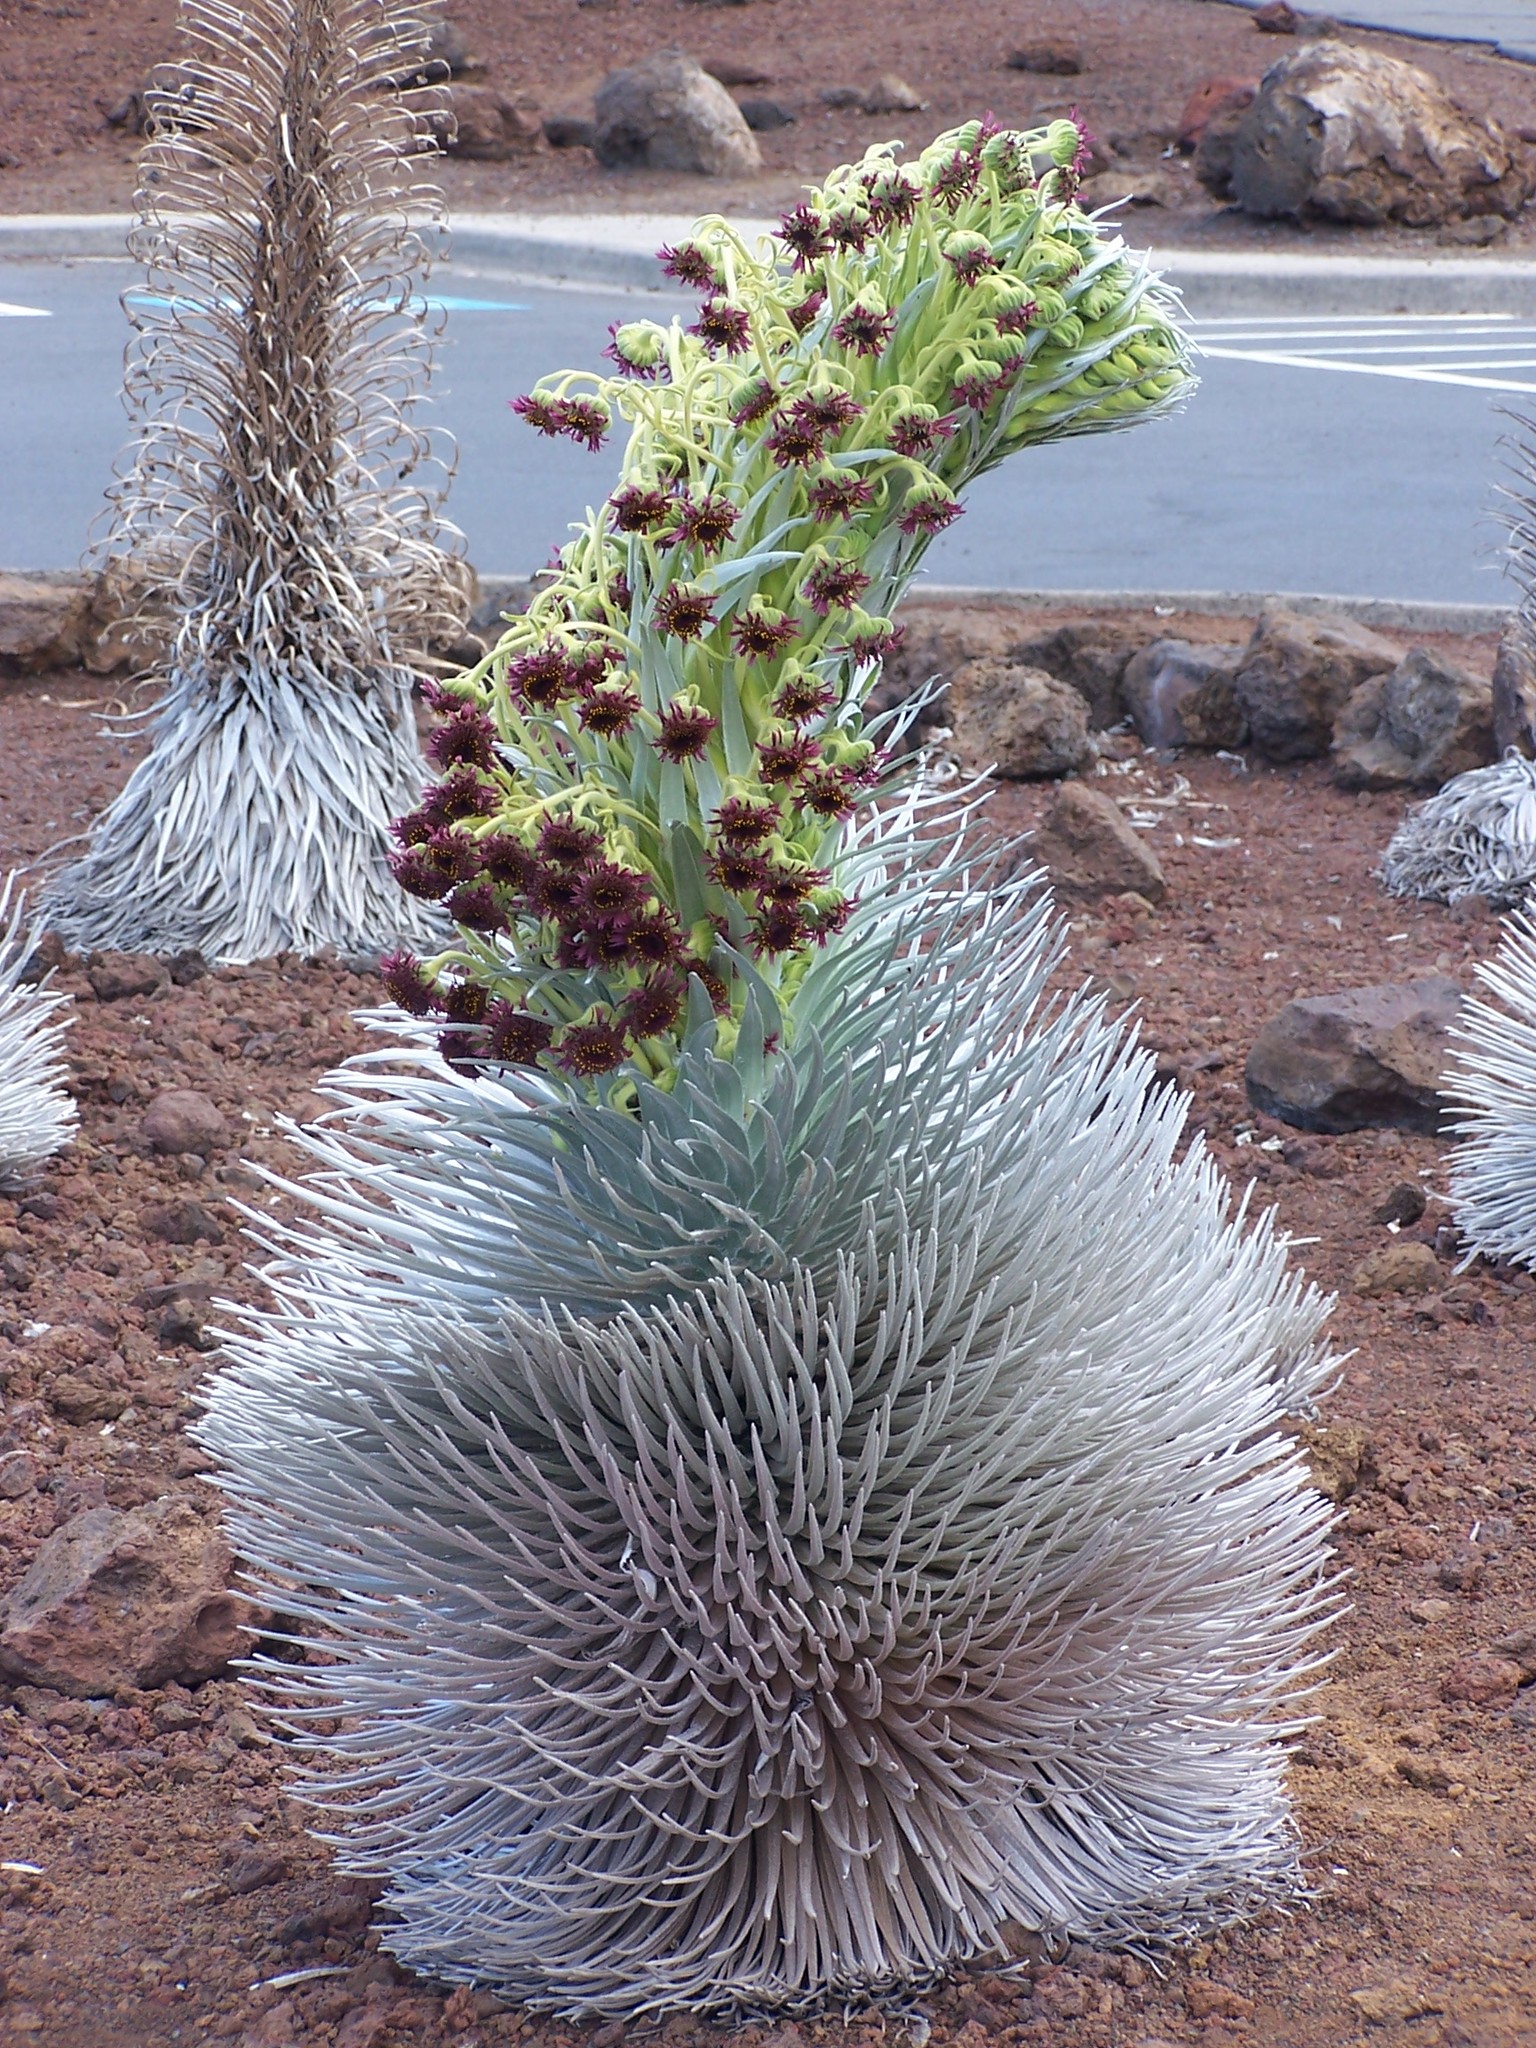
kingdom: Plantae
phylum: Tracheophyta
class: Magnoliopsida
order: Asterales
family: Asteraceae
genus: Argyroxiphium
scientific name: Argyroxiphium sandwicense
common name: Silversword
